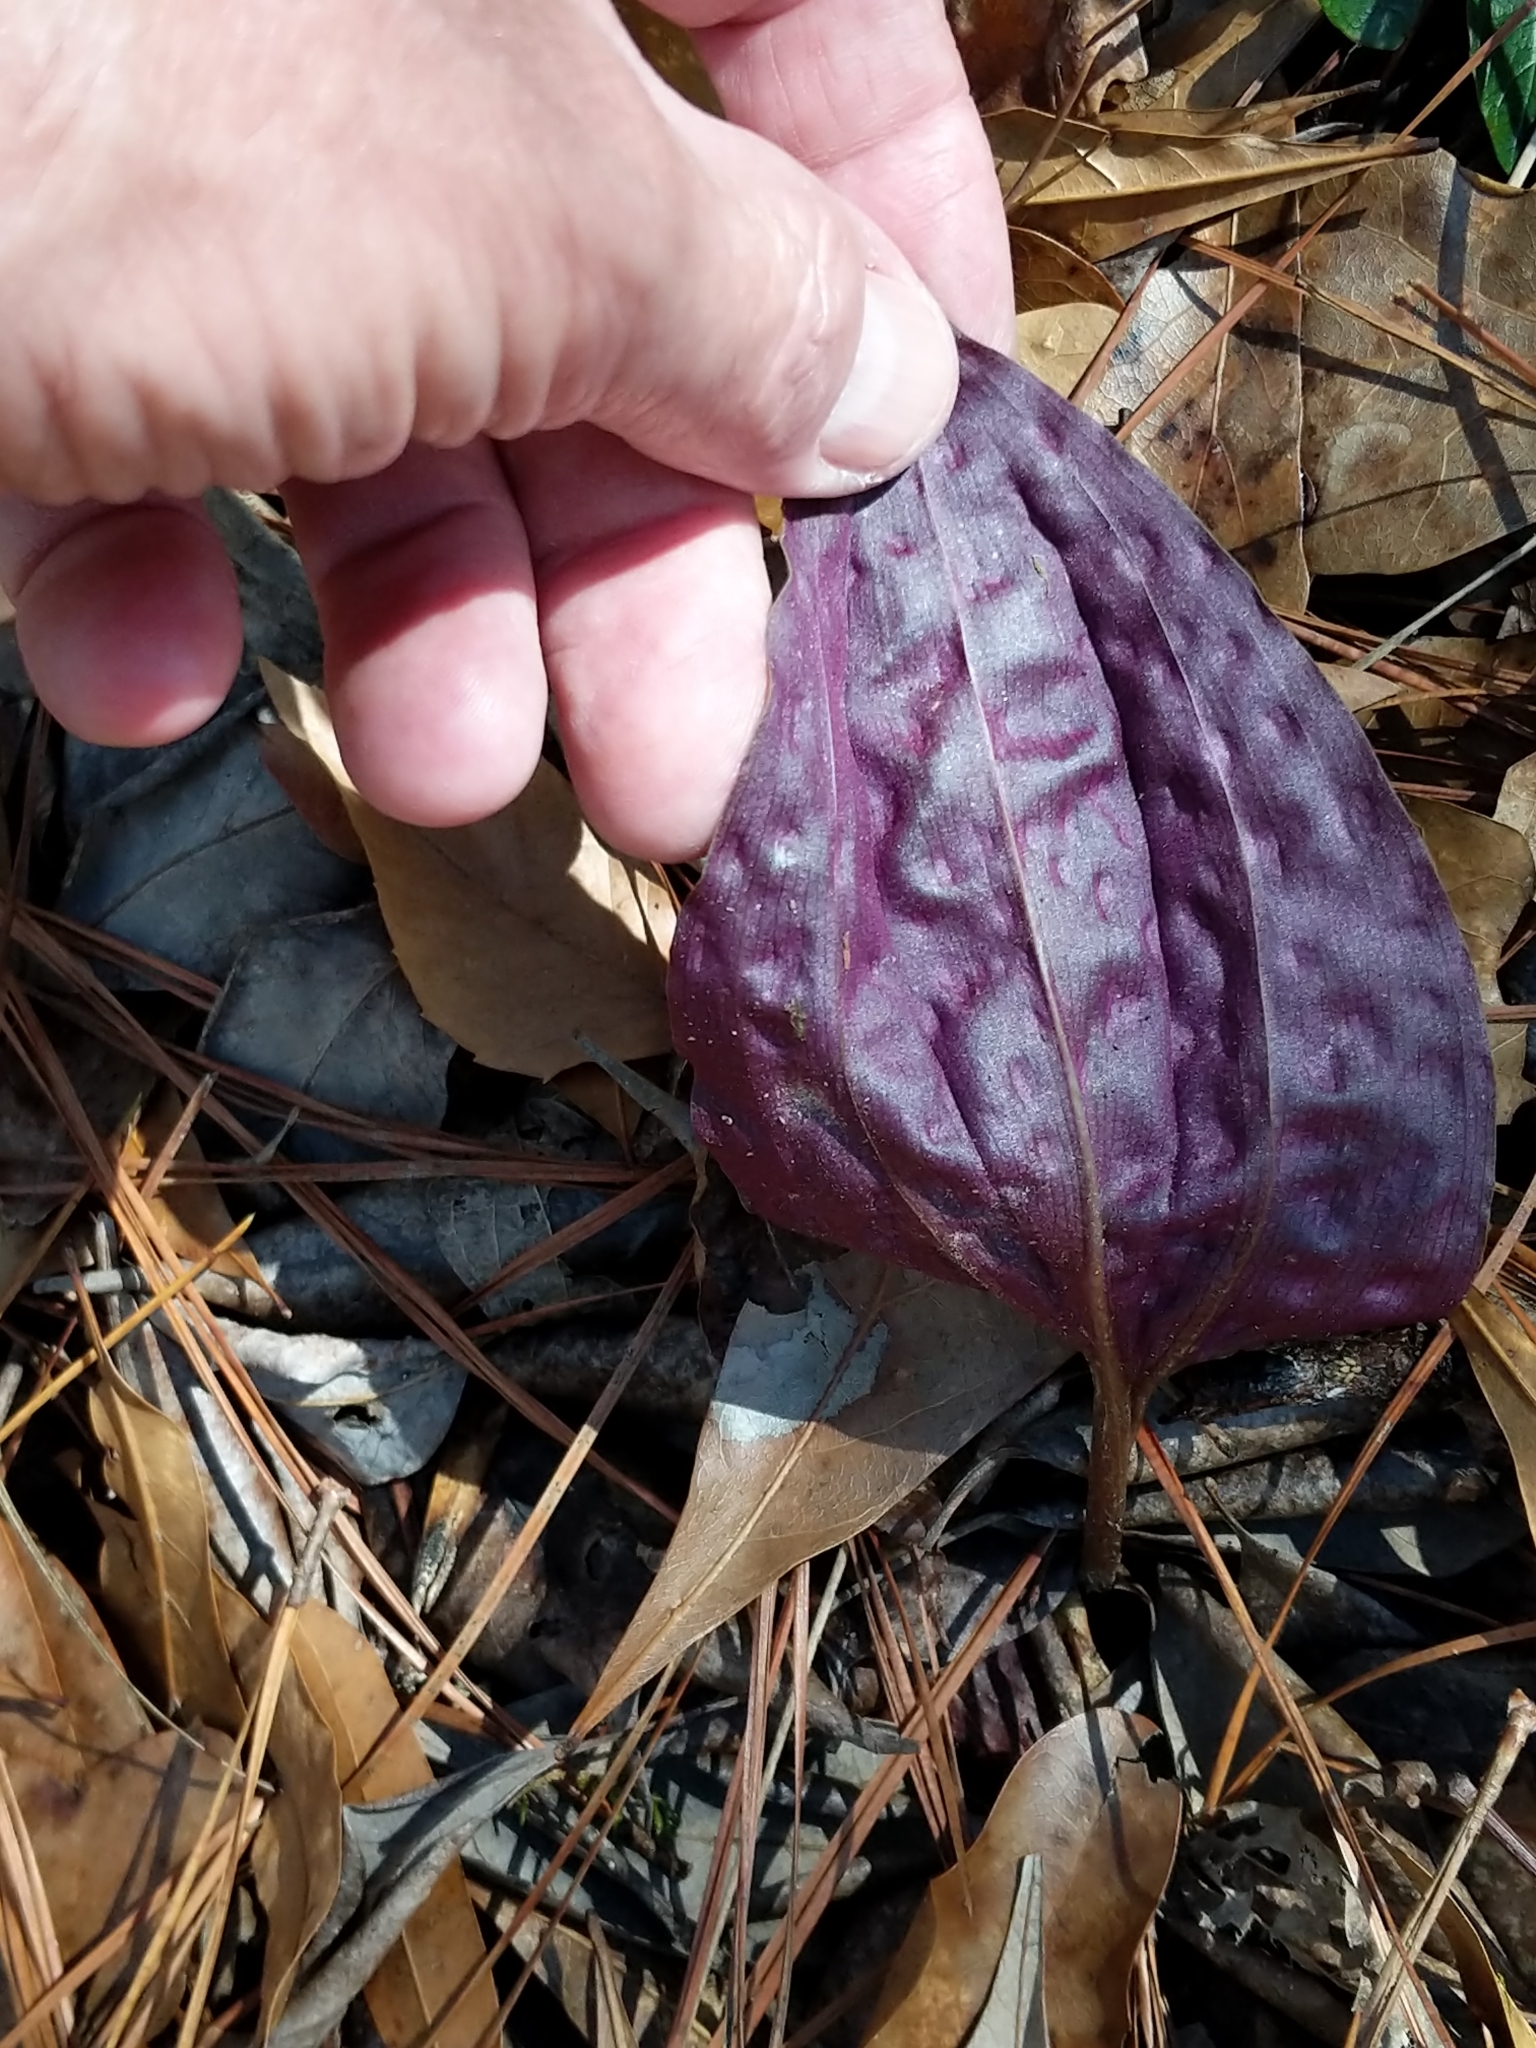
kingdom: Plantae
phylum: Tracheophyta
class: Liliopsida
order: Asparagales
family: Orchidaceae
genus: Tipularia
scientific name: Tipularia discolor
